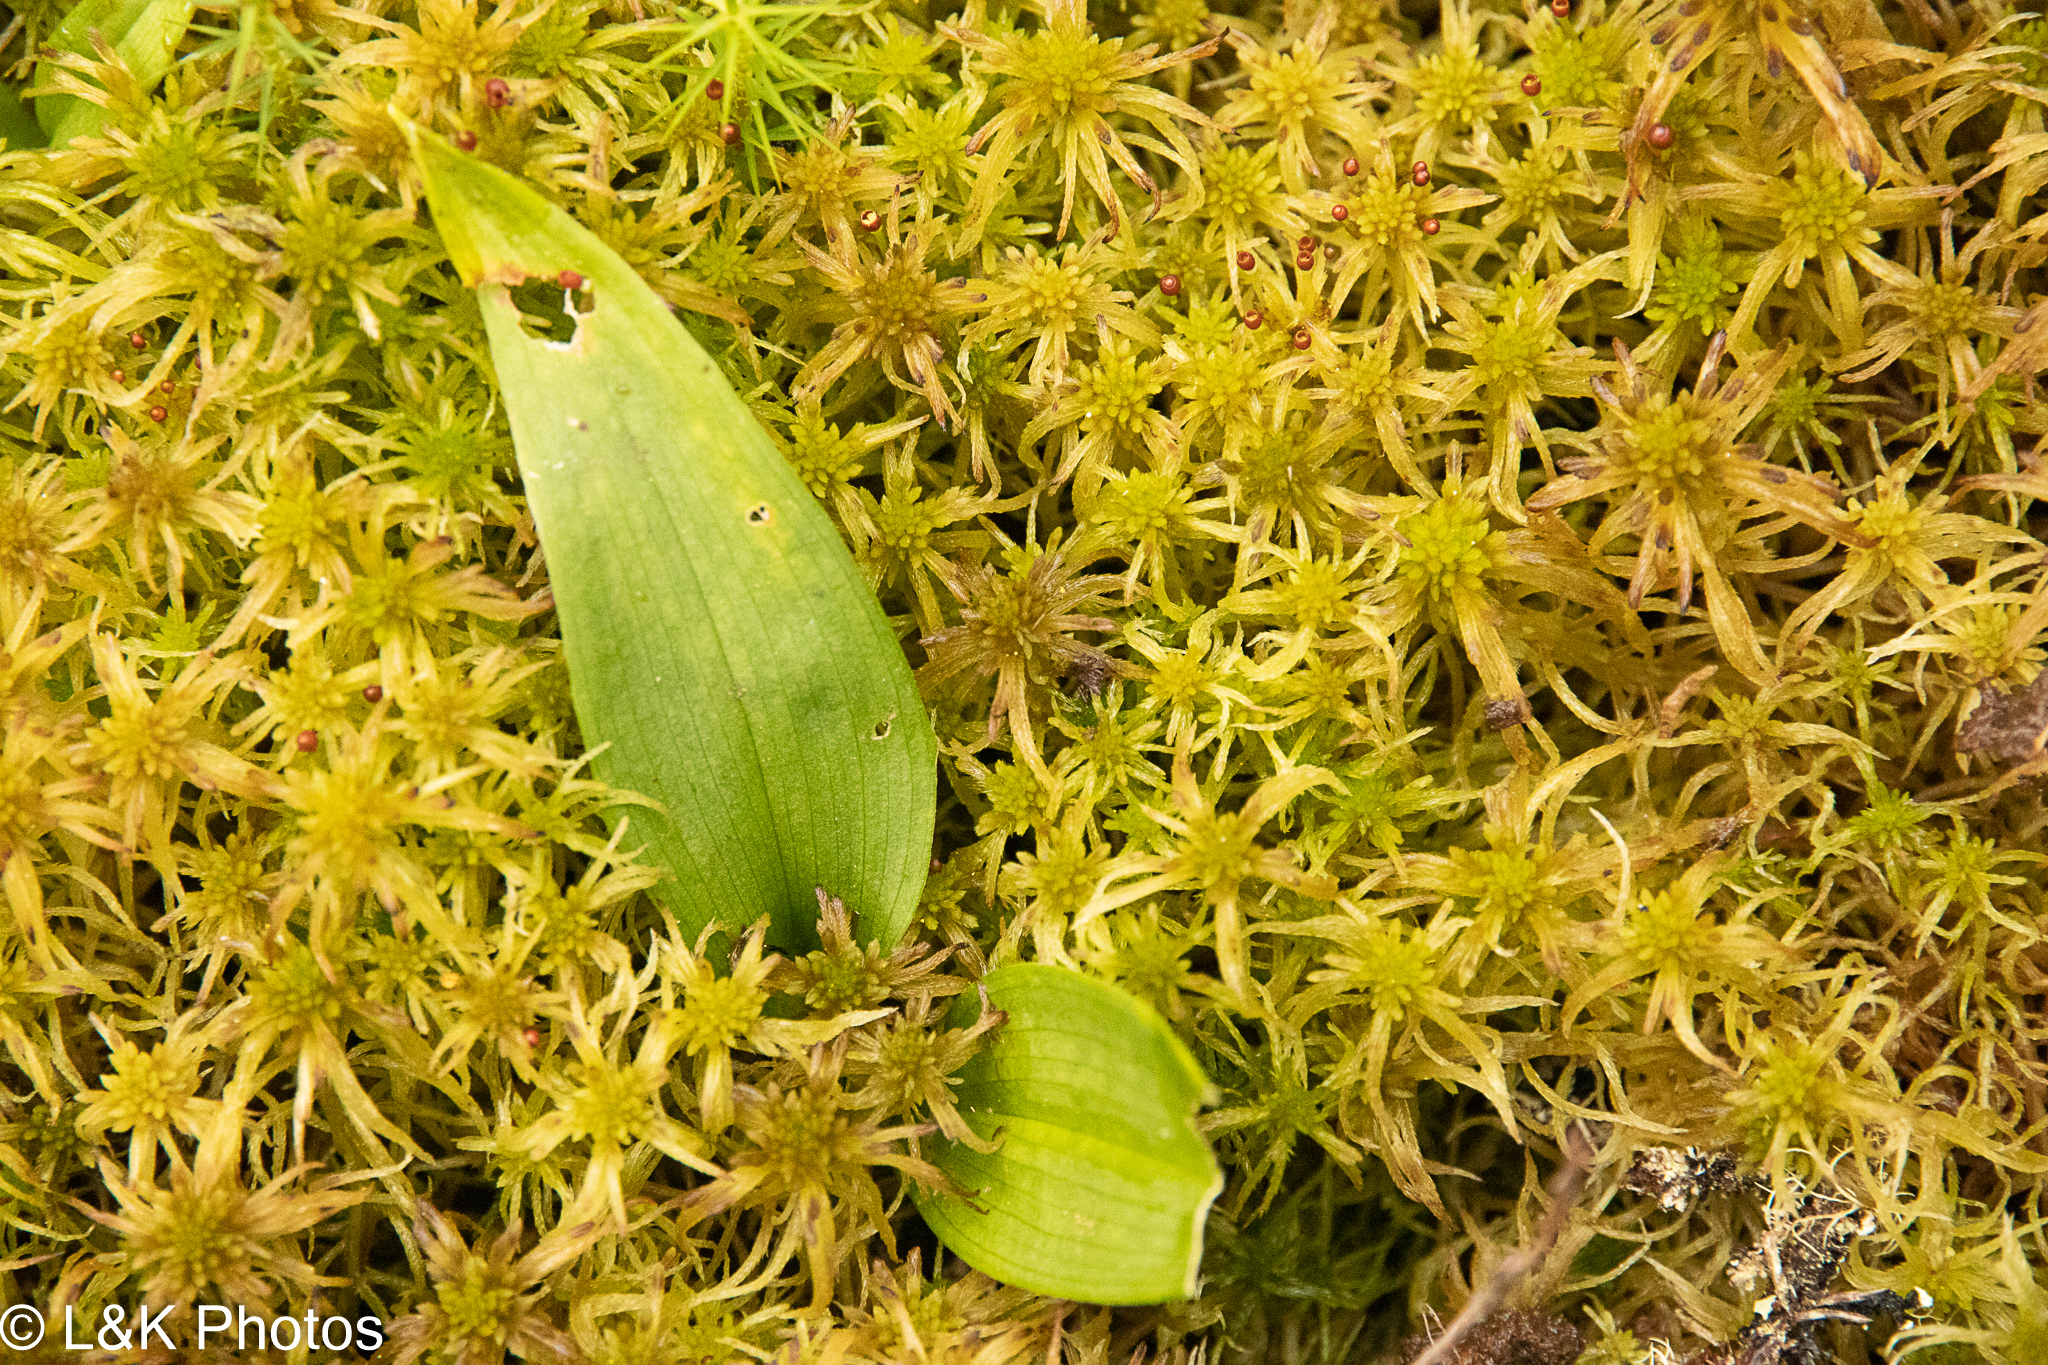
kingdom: Plantae
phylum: Tracheophyta
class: Liliopsida
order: Asparagales
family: Asparagaceae
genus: Maianthemum
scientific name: Maianthemum trifolium
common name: Swamp false solomon's seal
